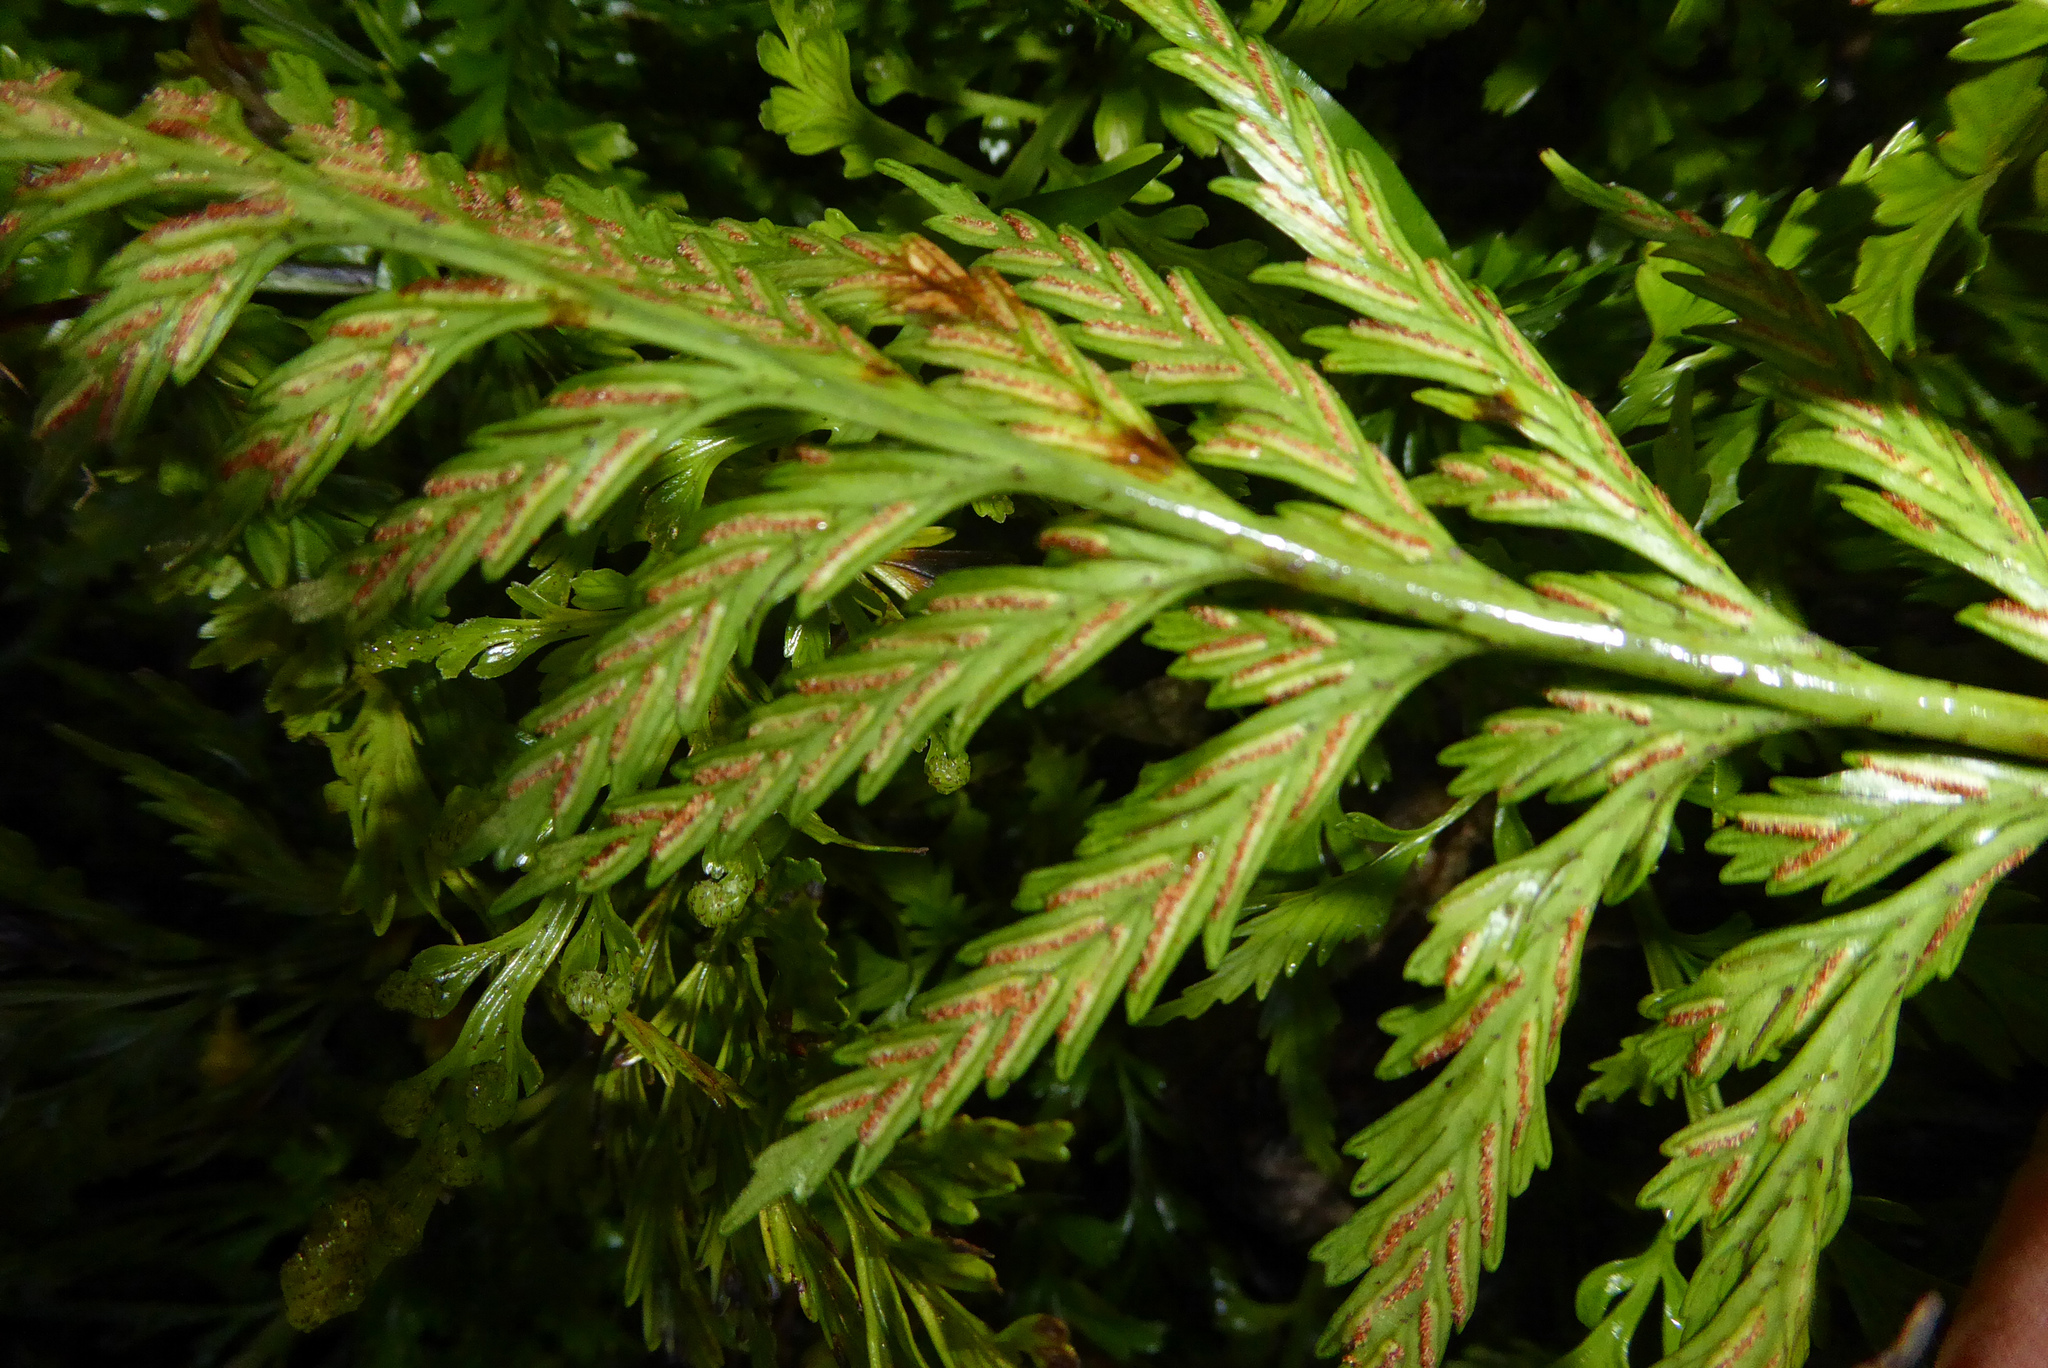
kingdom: Plantae
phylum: Tracheophyta
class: Polypodiopsida
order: Polypodiales
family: Aspleniaceae
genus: Asplenium
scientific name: Asplenium lamprophyllum
